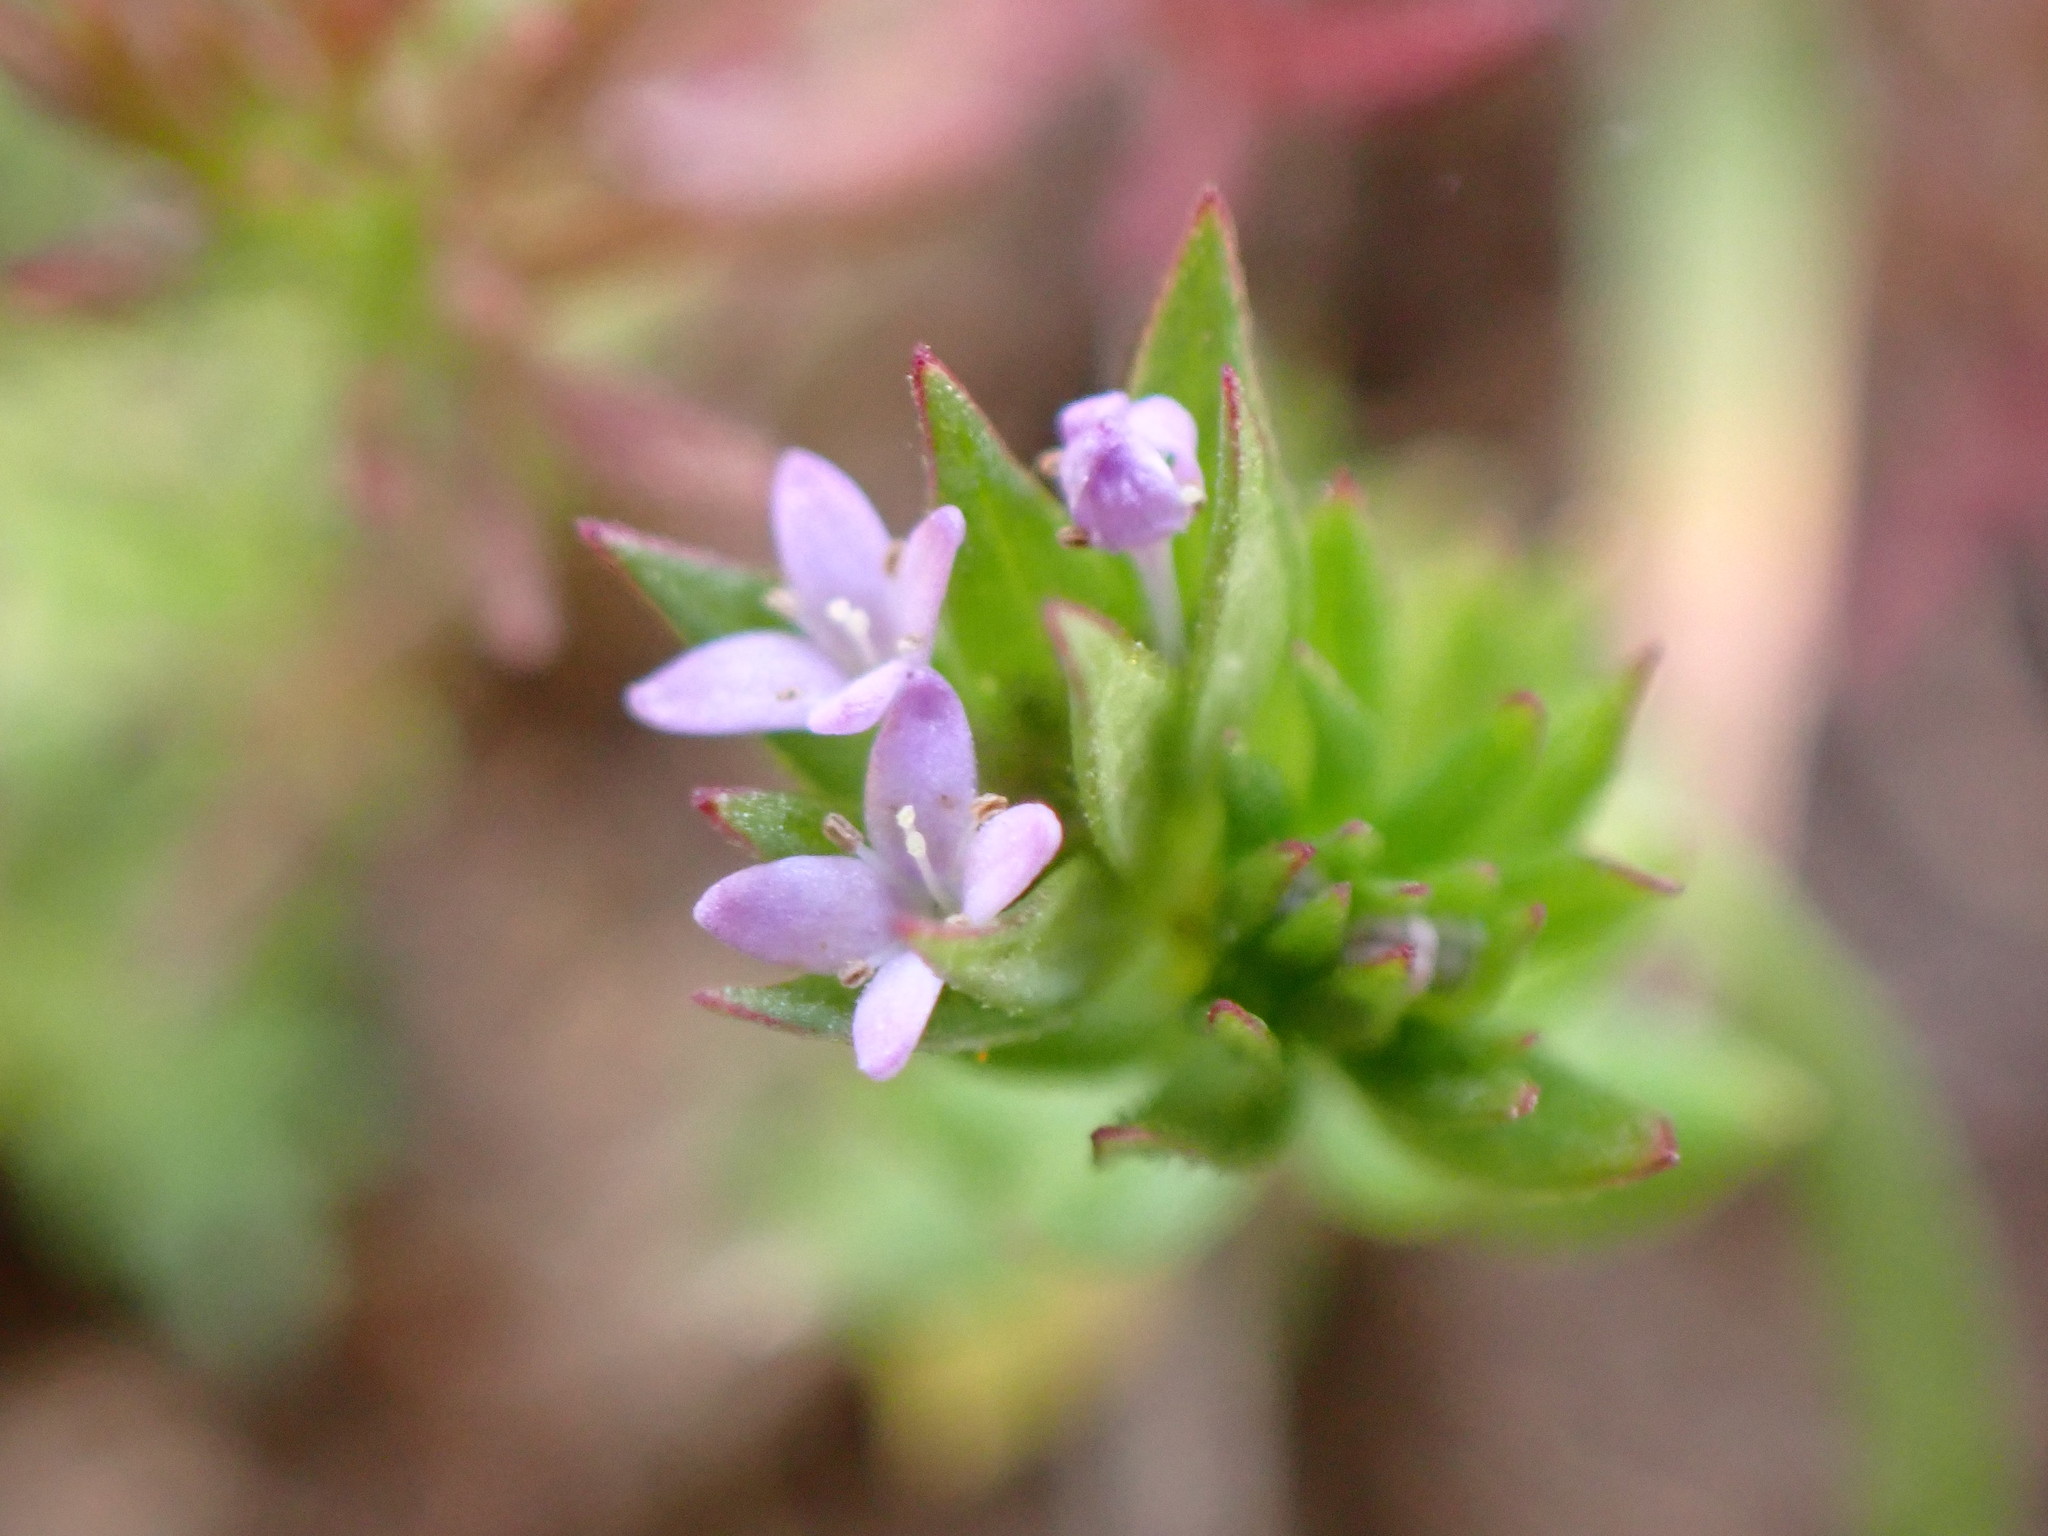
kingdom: Plantae
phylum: Tracheophyta
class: Magnoliopsida
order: Gentianales
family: Rubiaceae
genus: Sherardia
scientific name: Sherardia arvensis
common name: Field madder
